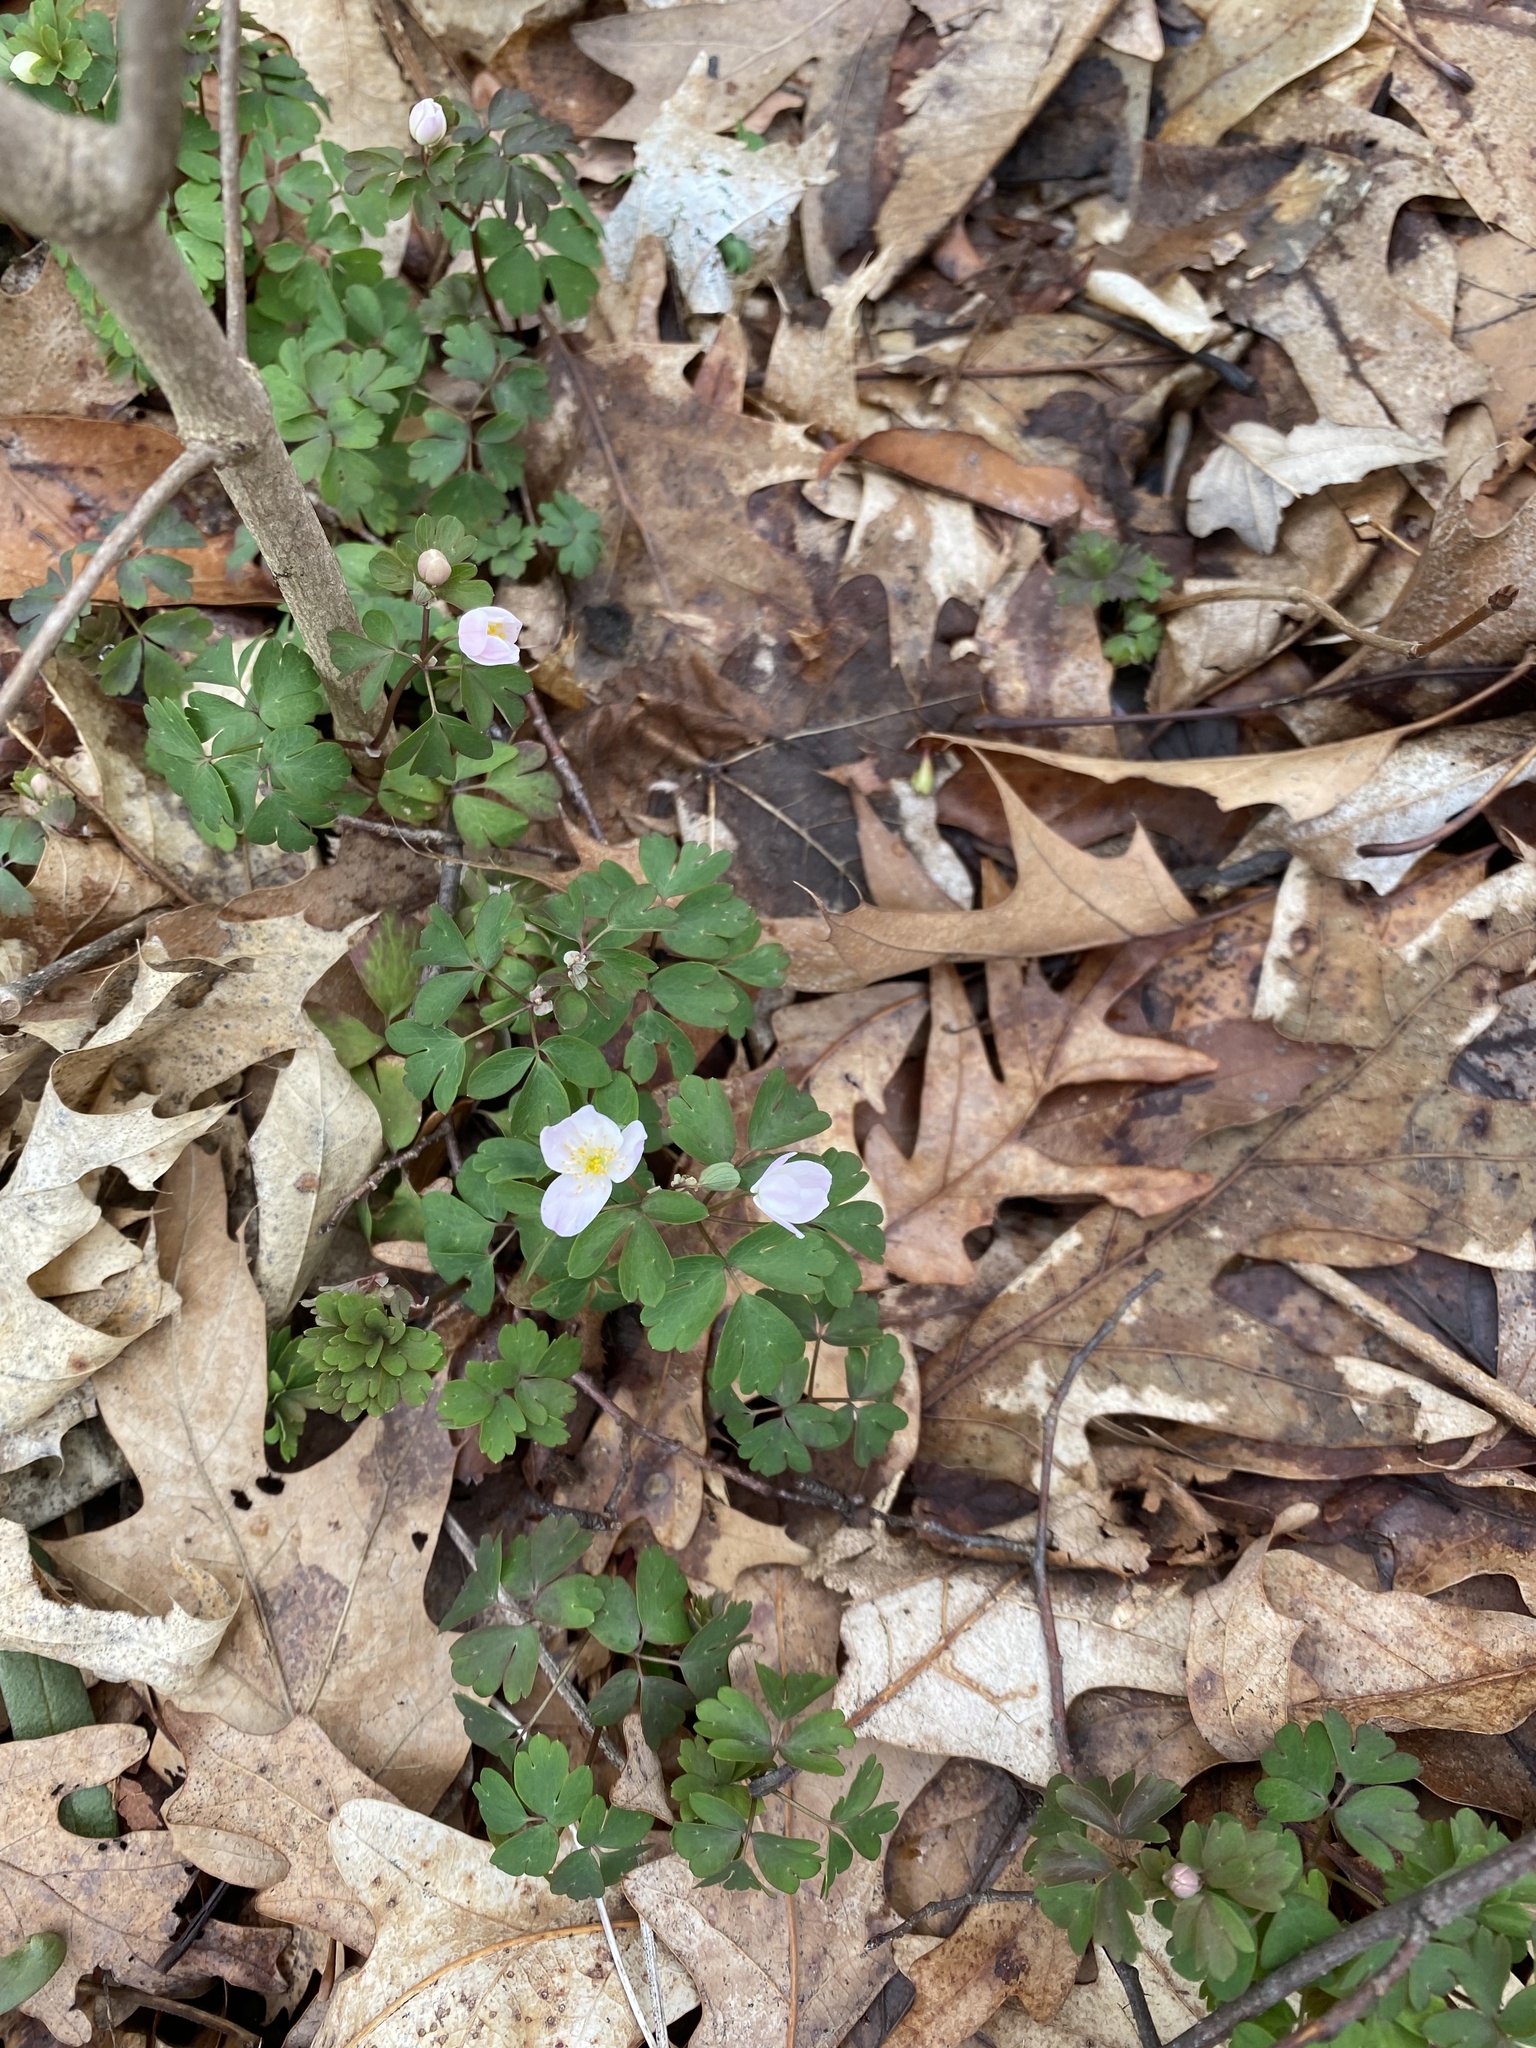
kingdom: Plantae
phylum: Tracheophyta
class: Magnoliopsida
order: Ranunculales
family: Ranunculaceae
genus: Enemion
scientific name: Enemion biternatum
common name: Eastern false rue-anemone
